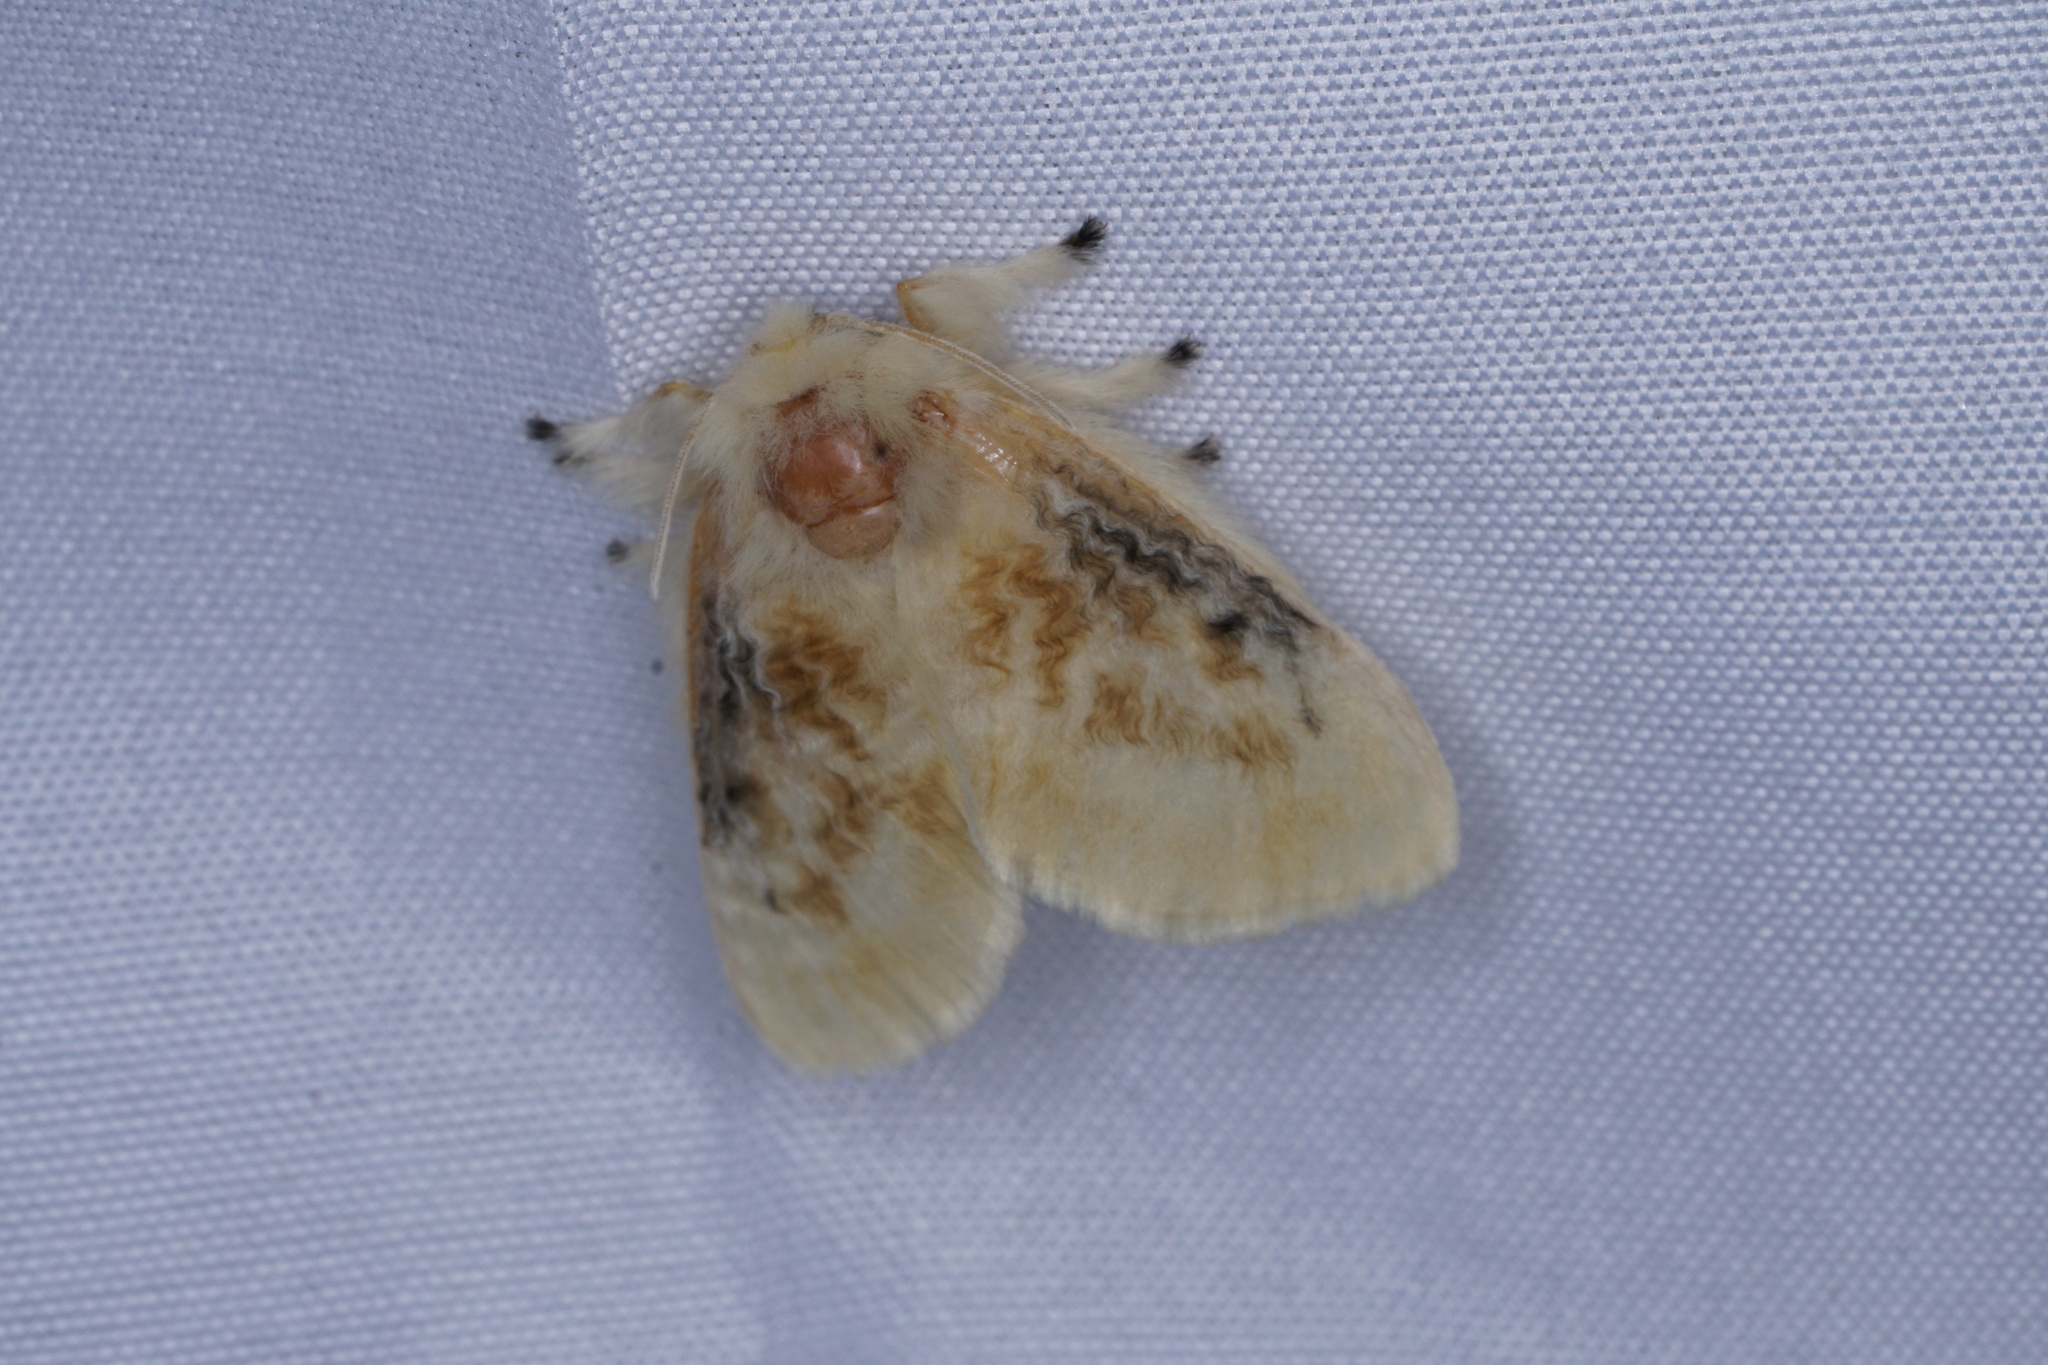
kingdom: Animalia
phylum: Arthropoda
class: Insecta
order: Lepidoptera
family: Megalopygidae
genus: Megalopyge
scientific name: Megalopyge crispata
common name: Black-waved flannel moth
